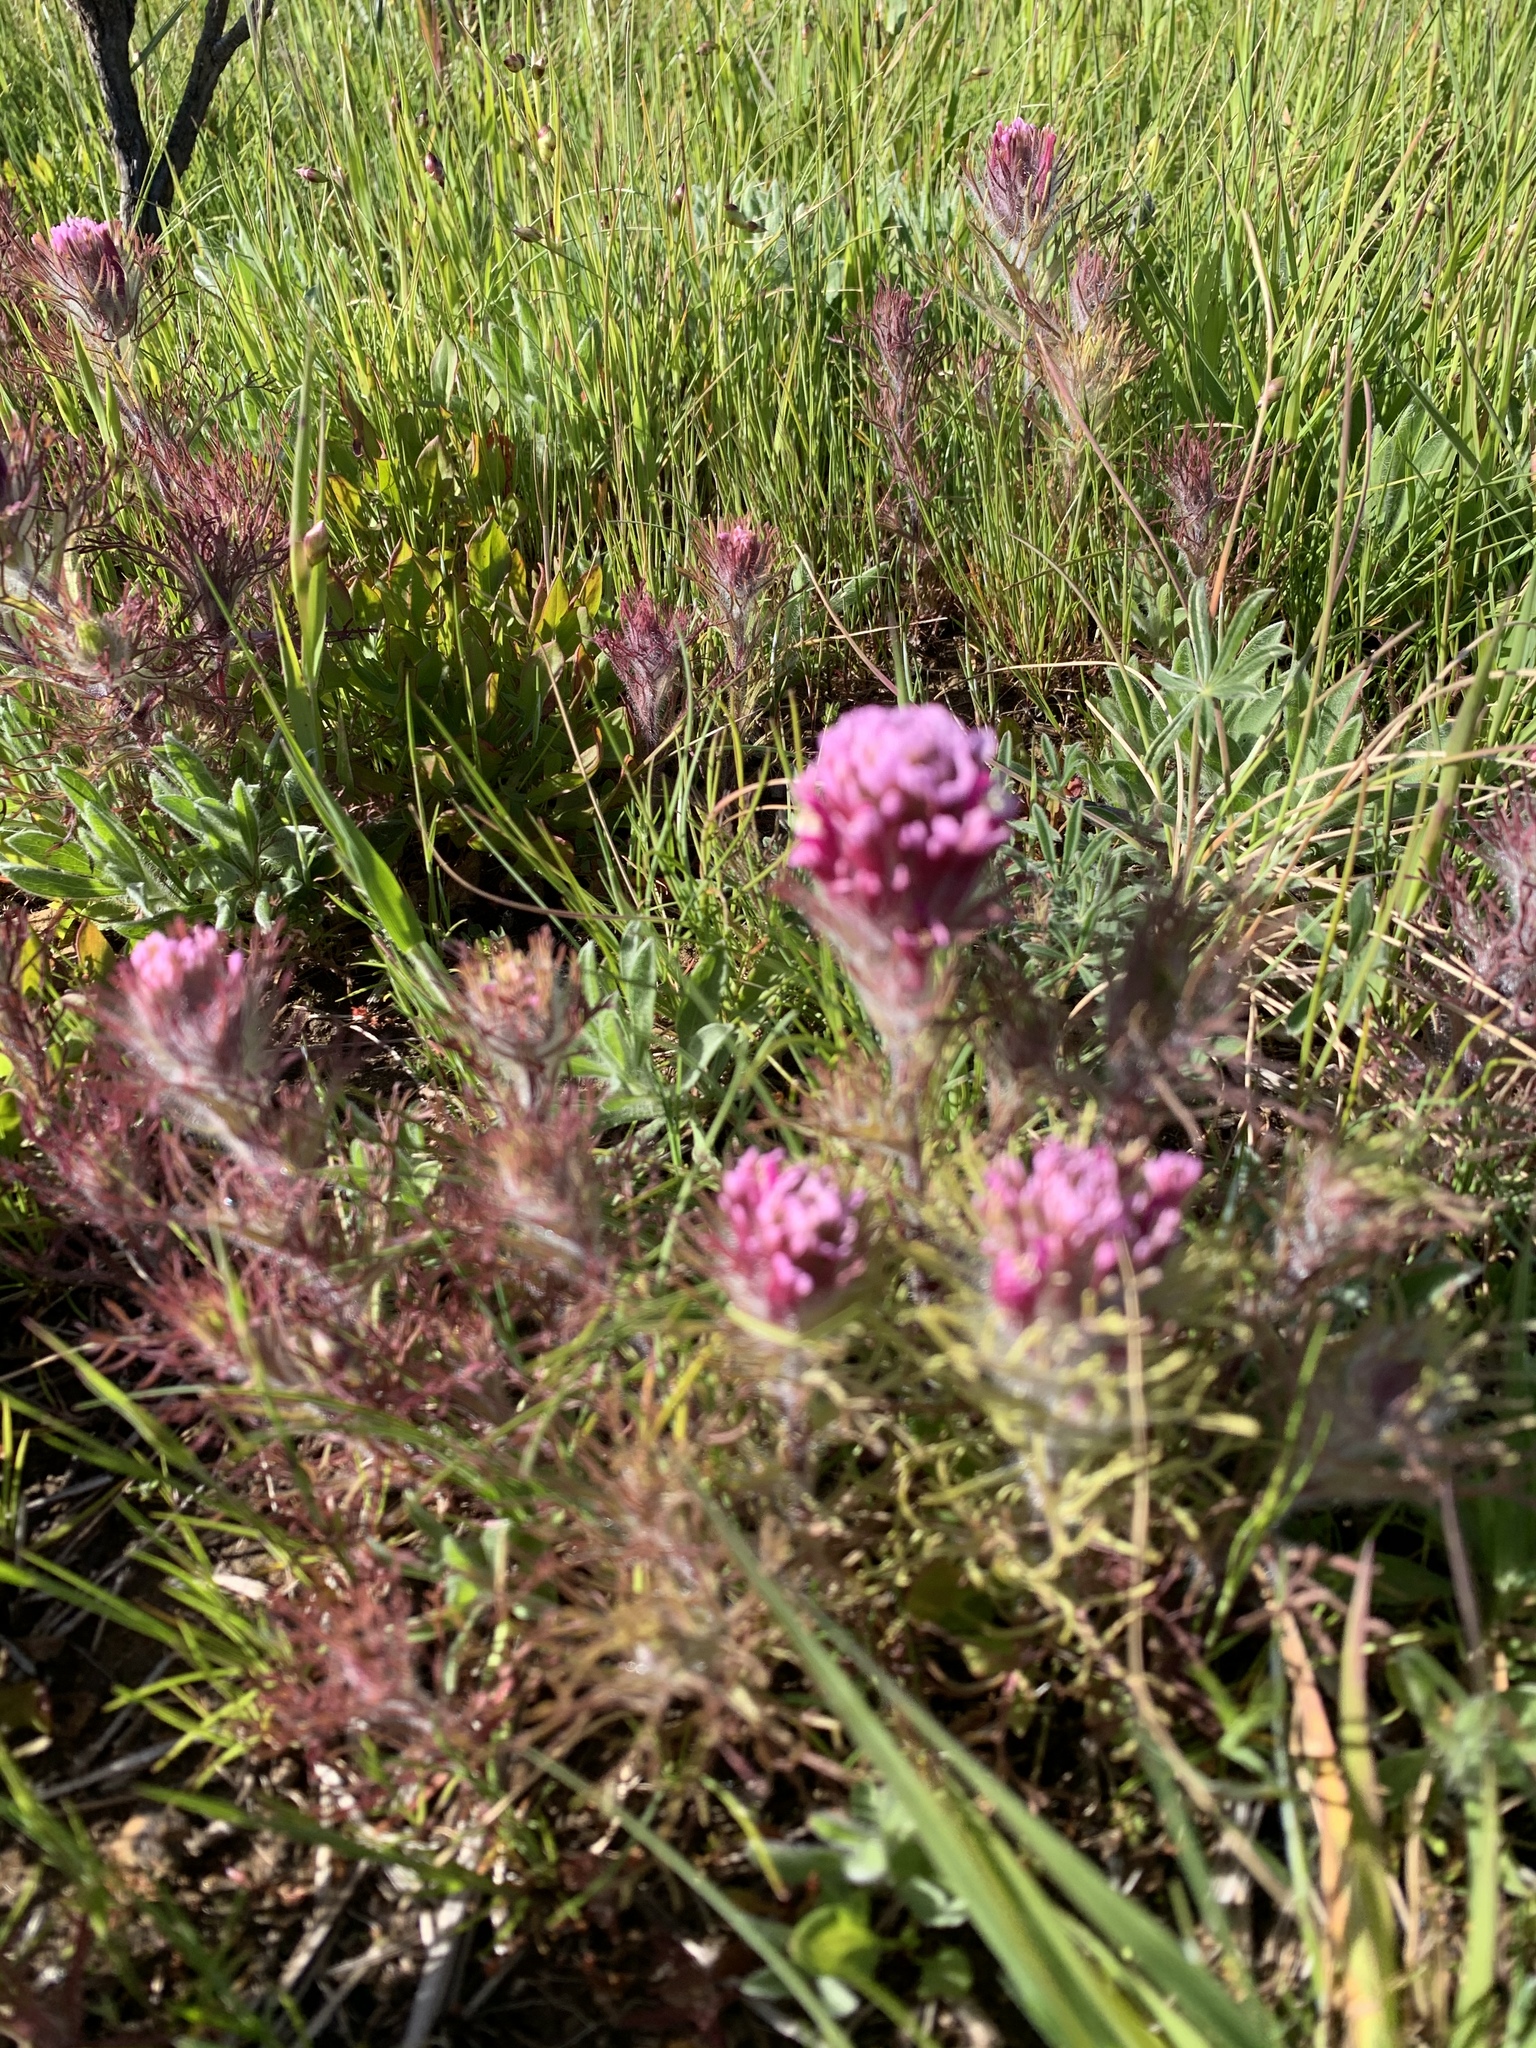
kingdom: Plantae
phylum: Tracheophyta
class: Magnoliopsida
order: Lamiales
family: Orobanchaceae
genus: Castilleja
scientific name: Castilleja exserta
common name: Purple owl-clover
